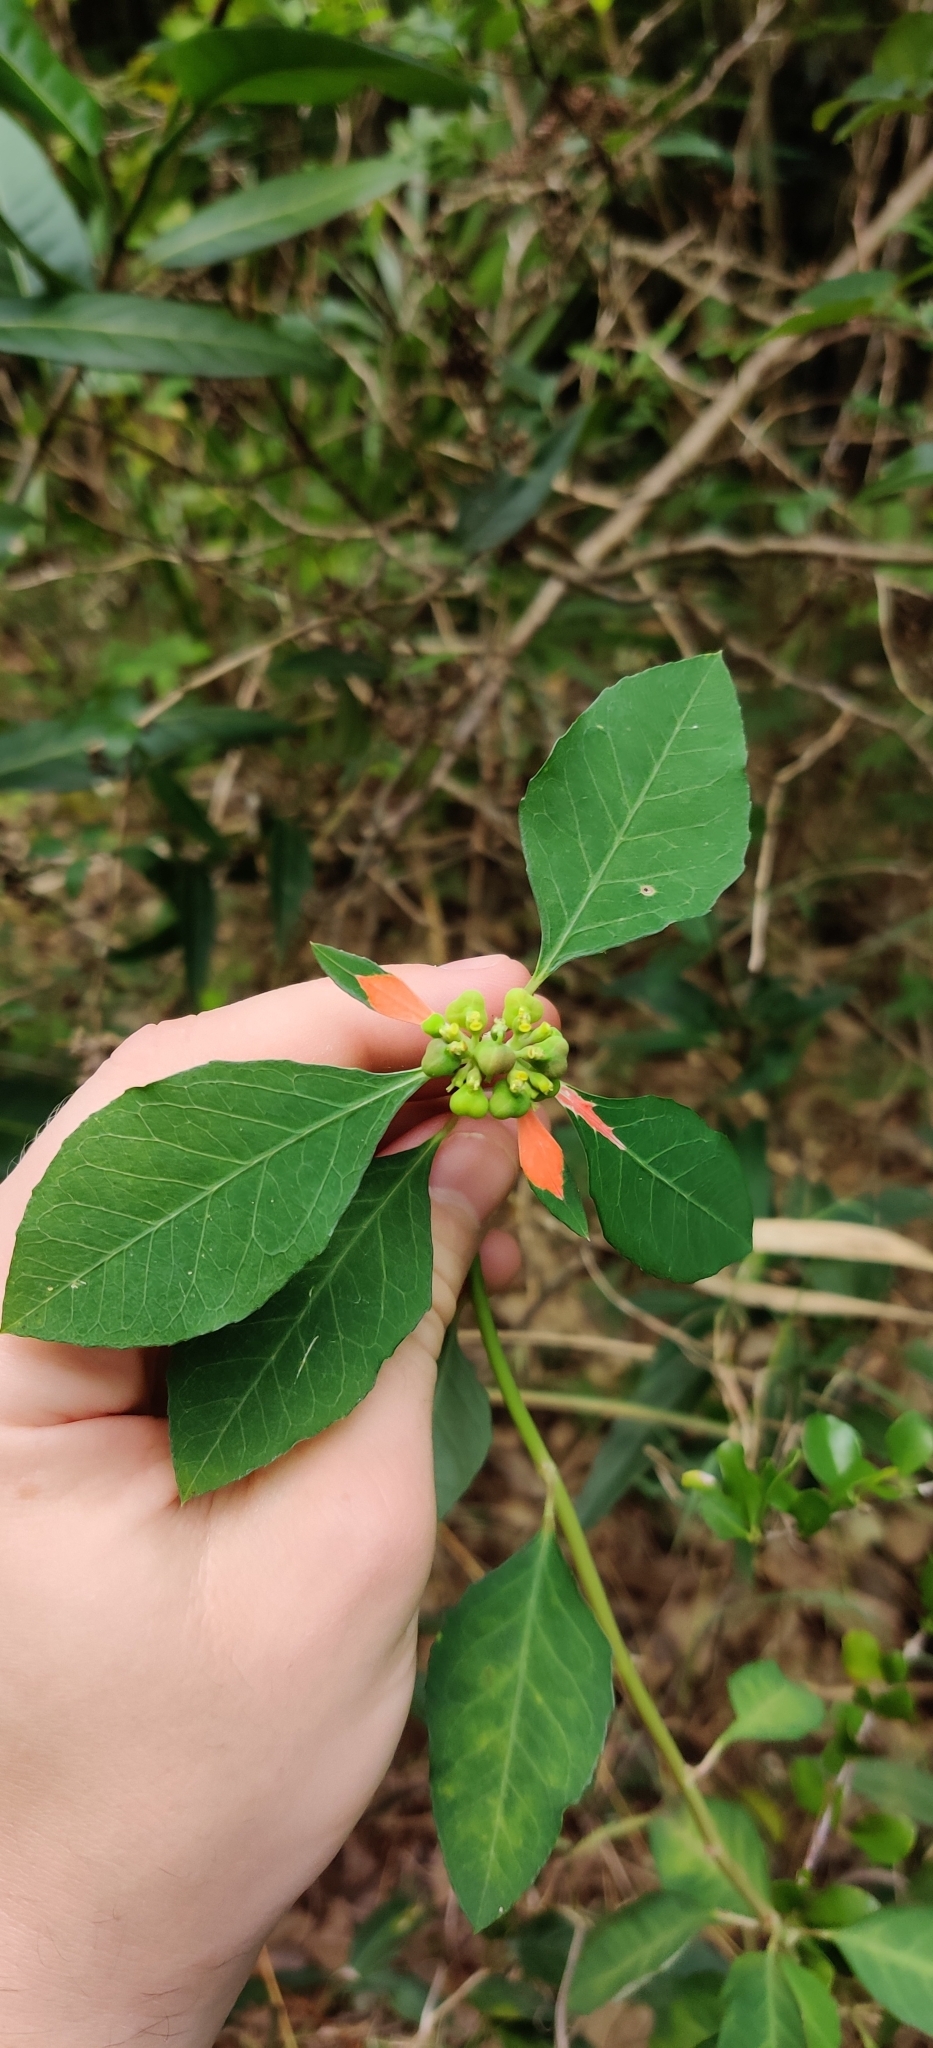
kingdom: Plantae
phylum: Tracheophyta
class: Magnoliopsida
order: Malpighiales
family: Euphorbiaceae
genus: Euphorbia
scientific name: Euphorbia heterophylla
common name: Mexican fireplant
